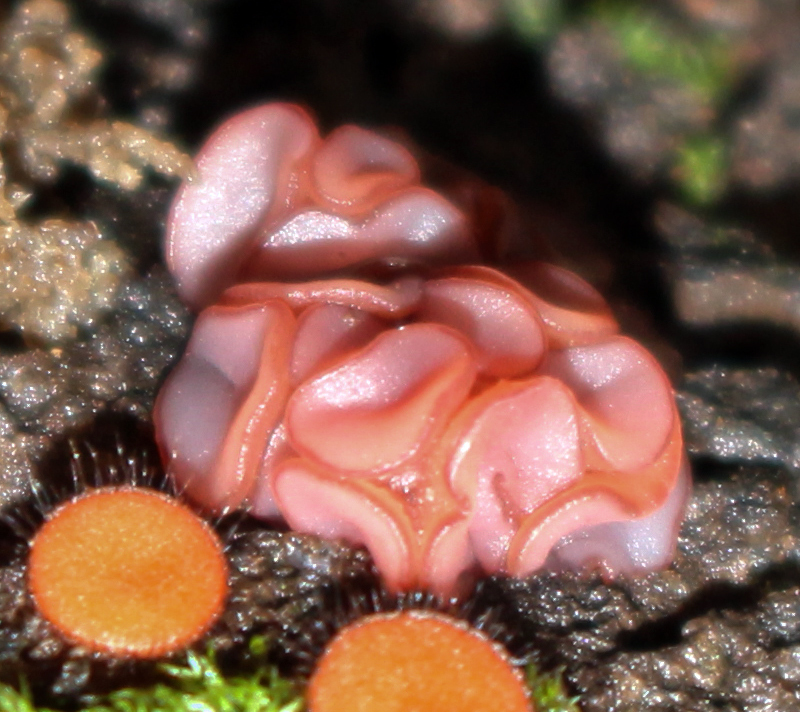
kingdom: Fungi
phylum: Ascomycota
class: Leotiomycetes
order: Helotiales
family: Gelatinodiscaceae
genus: Ascocoryne
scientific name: Ascocoryne sarcoides
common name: Purple jellydisc
